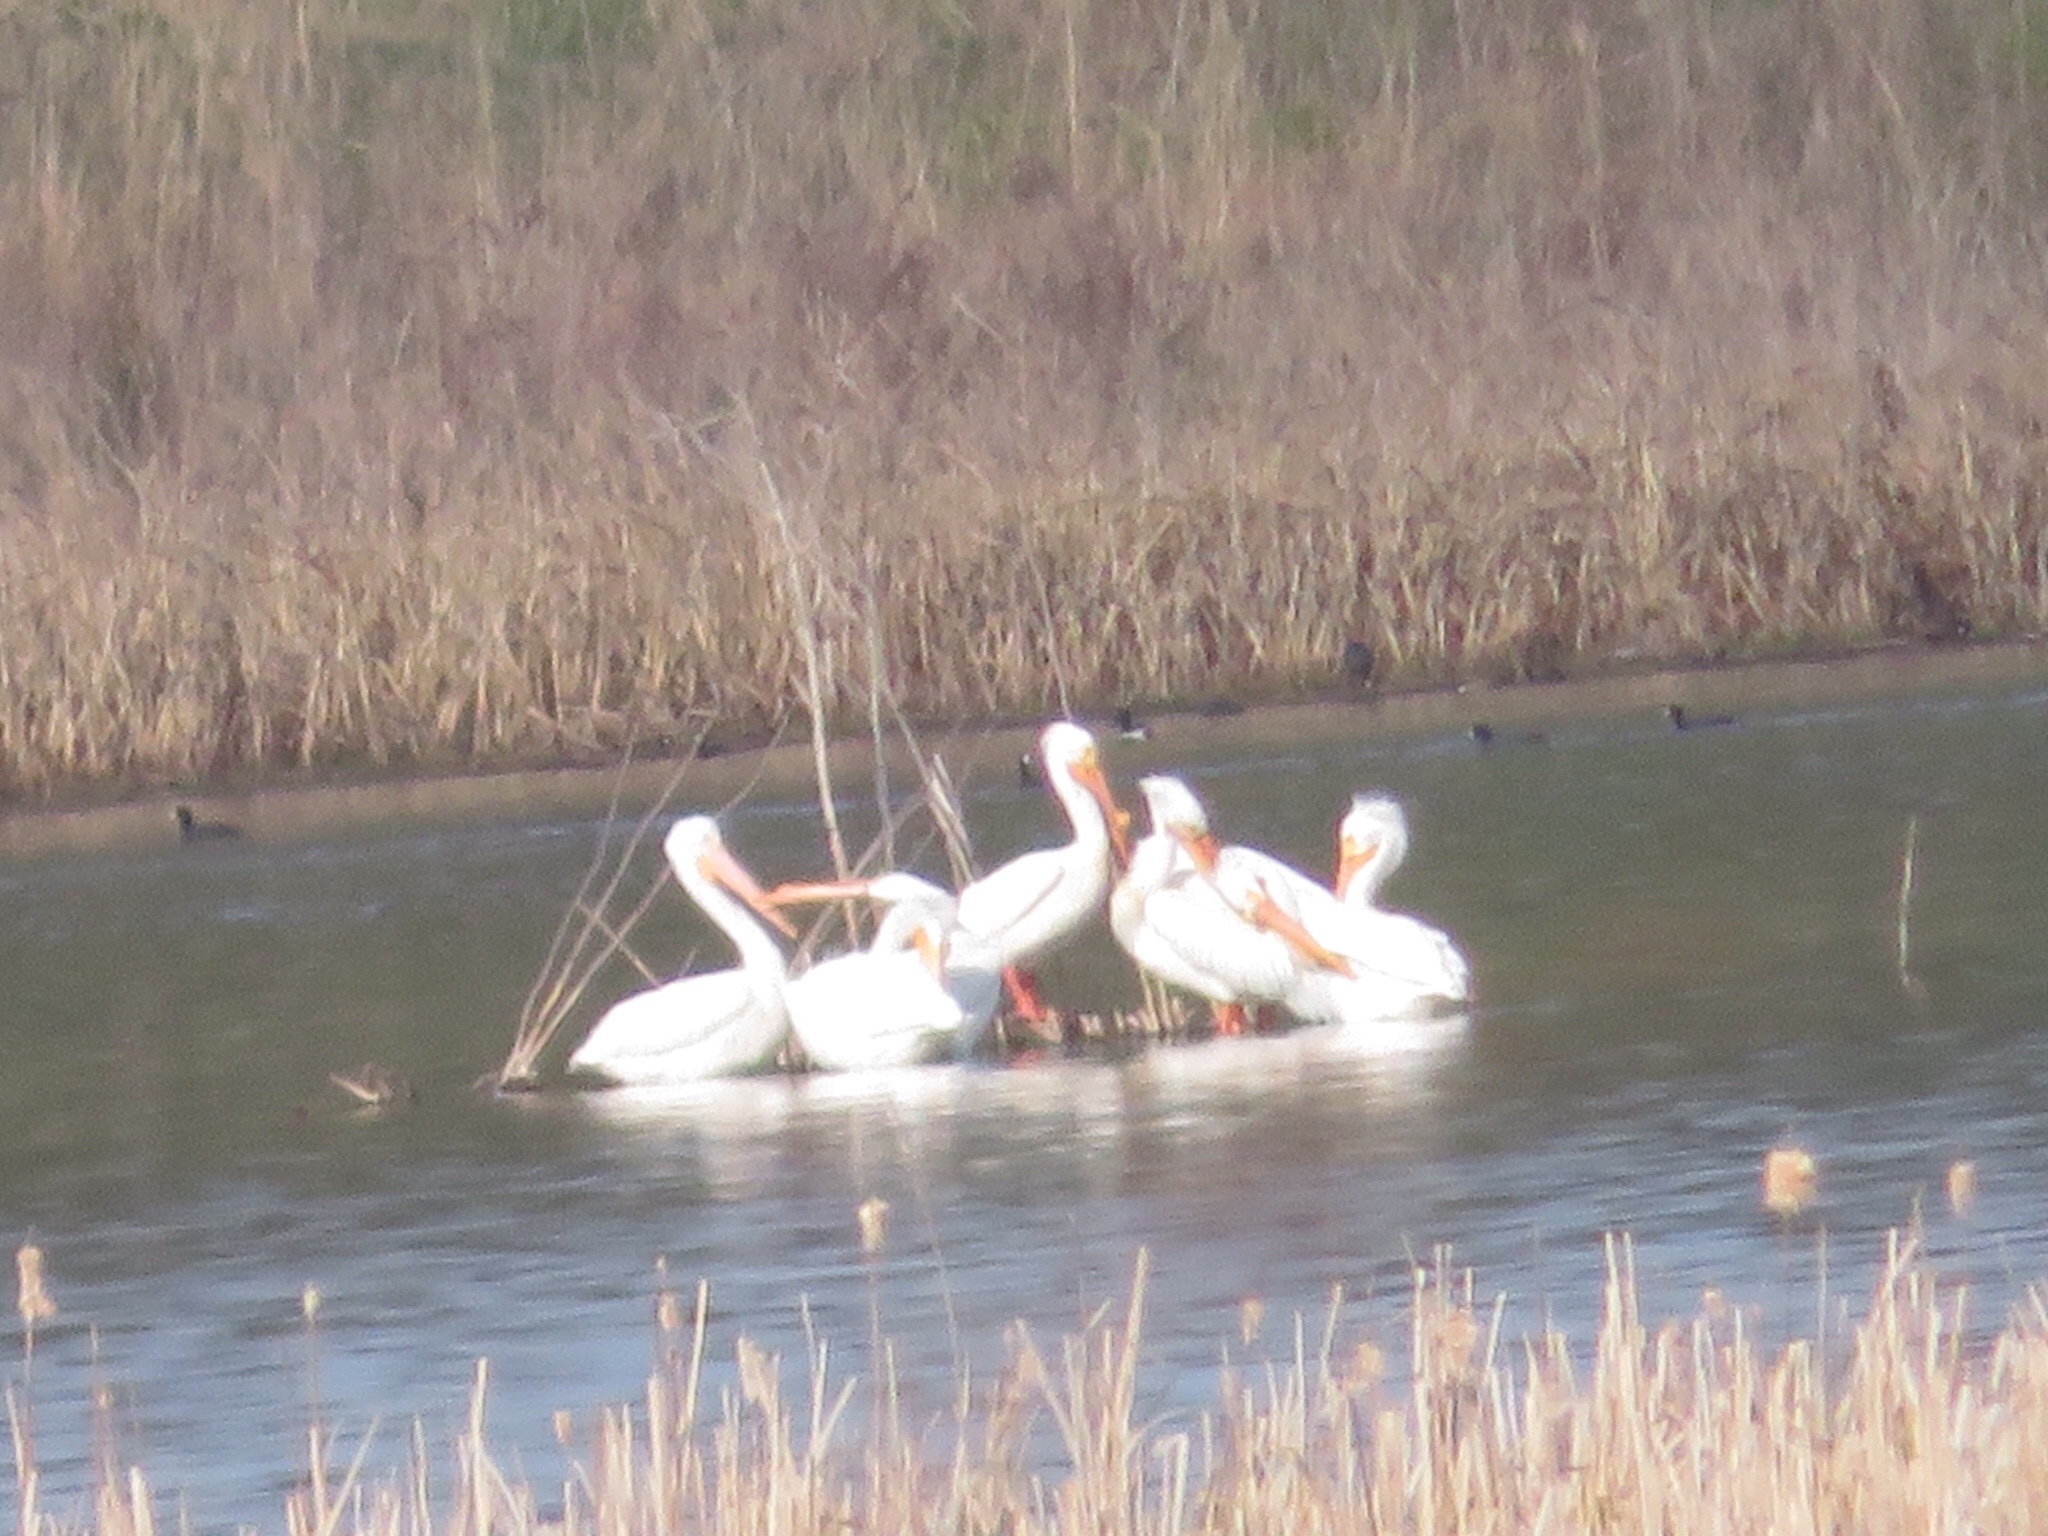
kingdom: Animalia
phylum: Chordata
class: Aves
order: Pelecaniformes
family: Pelecanidae
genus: Pelecanus
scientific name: Pelecanus erythrorhynchos
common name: American white pelican
